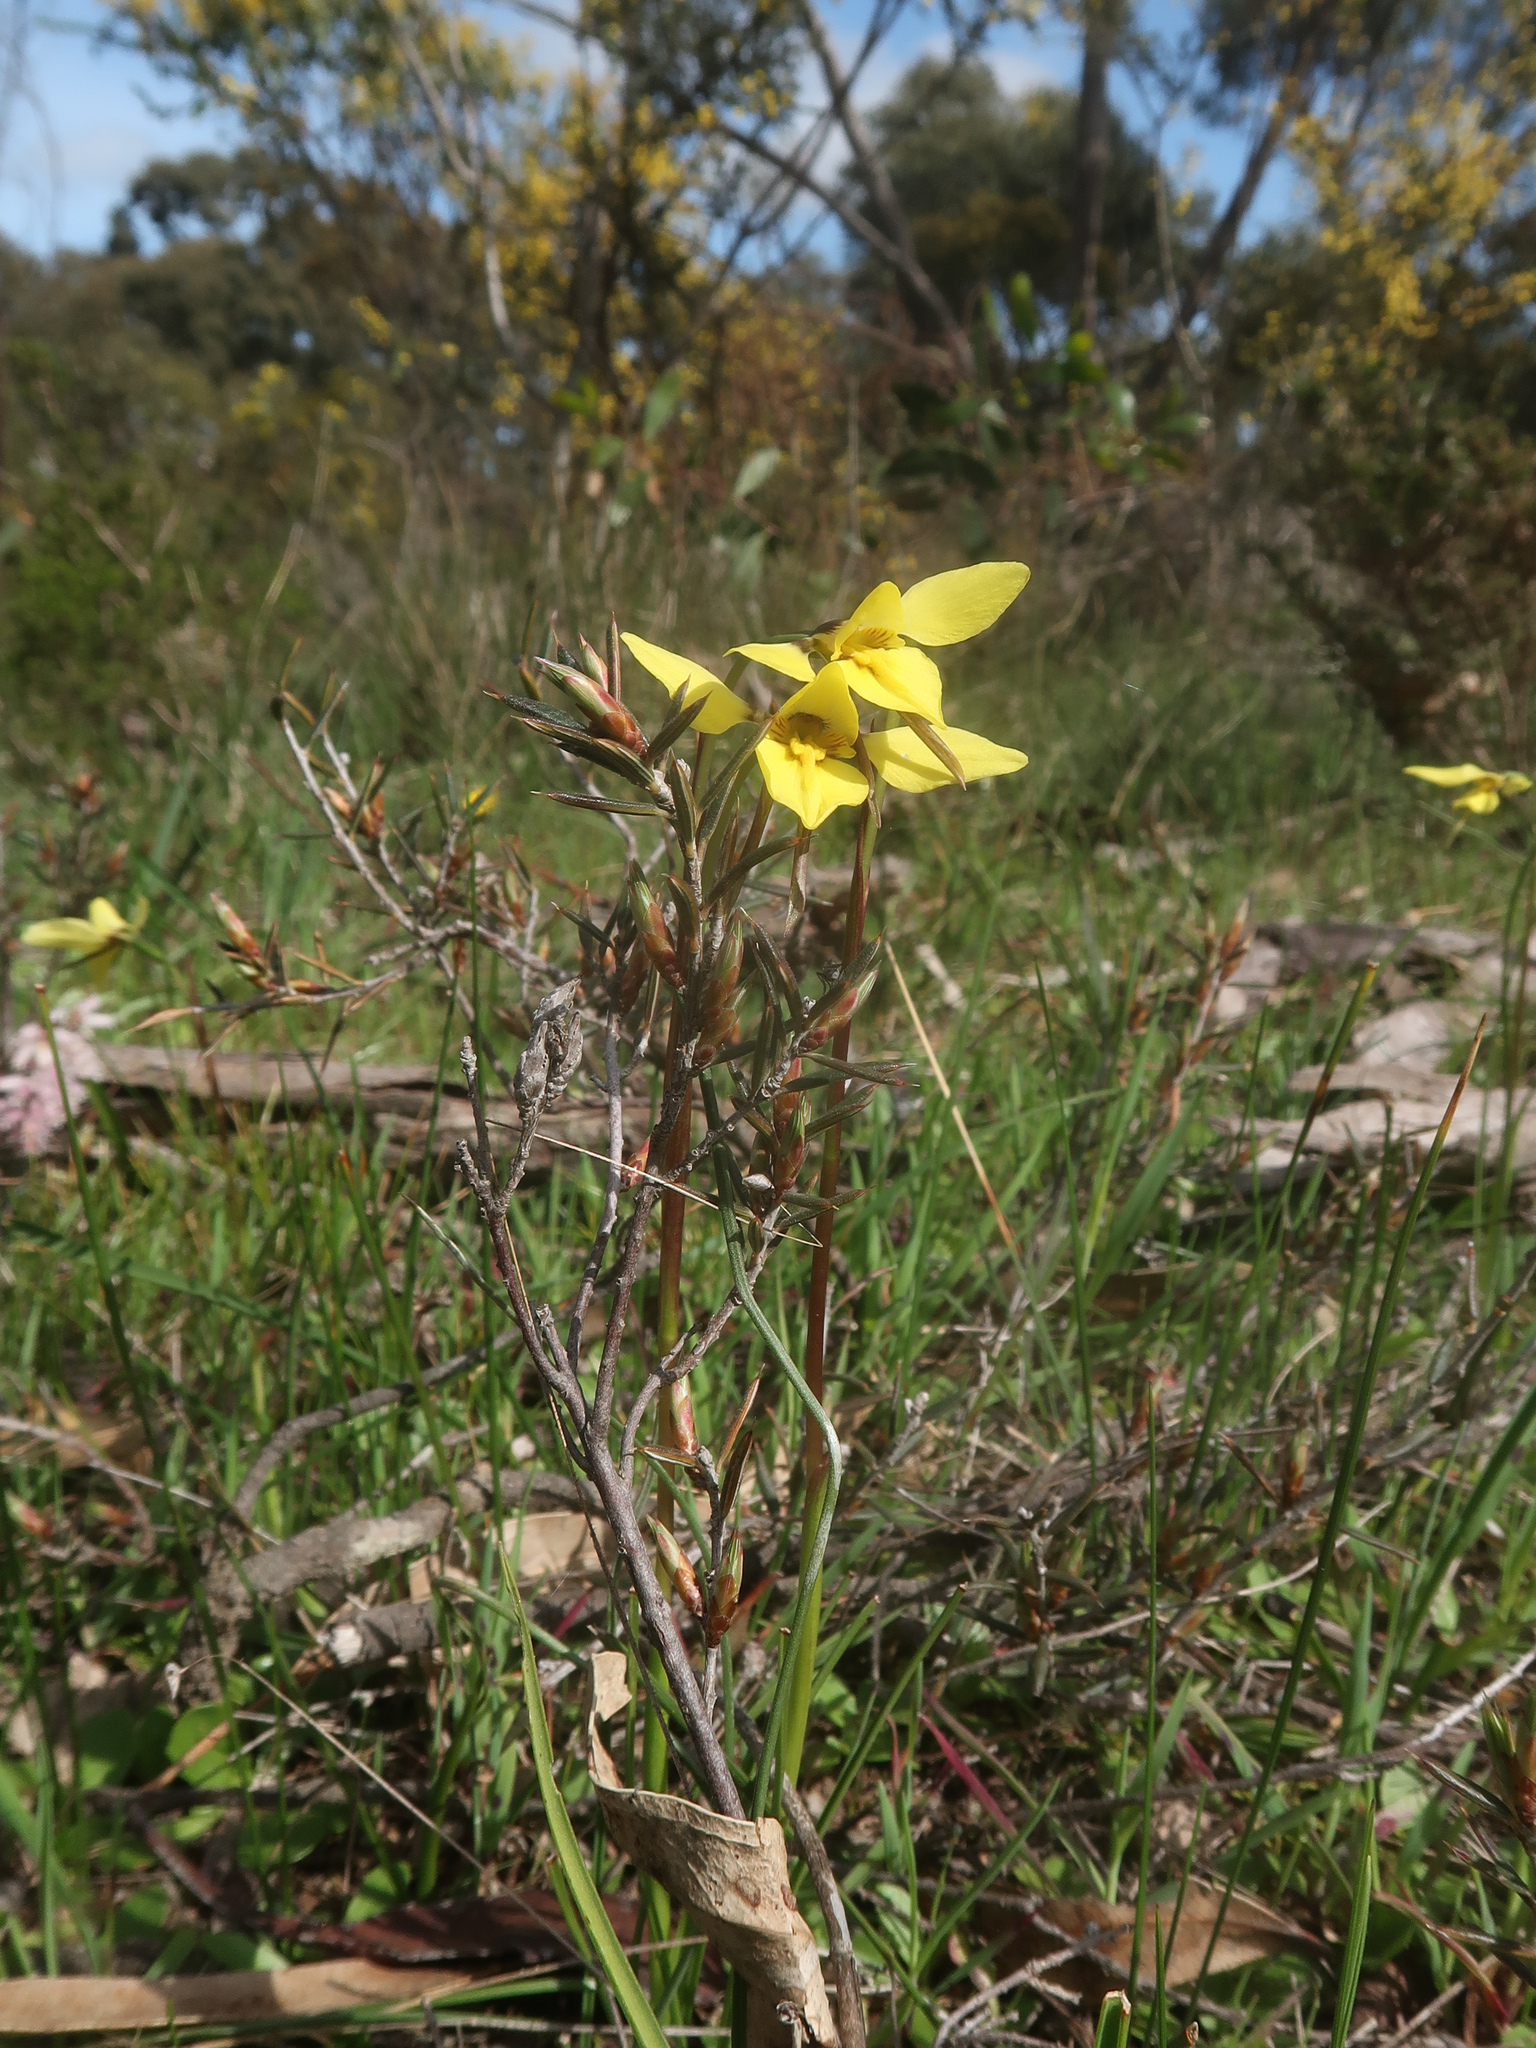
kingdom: Plantae
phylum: Tracheophyta
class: Liliopsida
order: Asparagales
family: Orchidaceae
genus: Diuris
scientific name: Diuris chryseopsis
